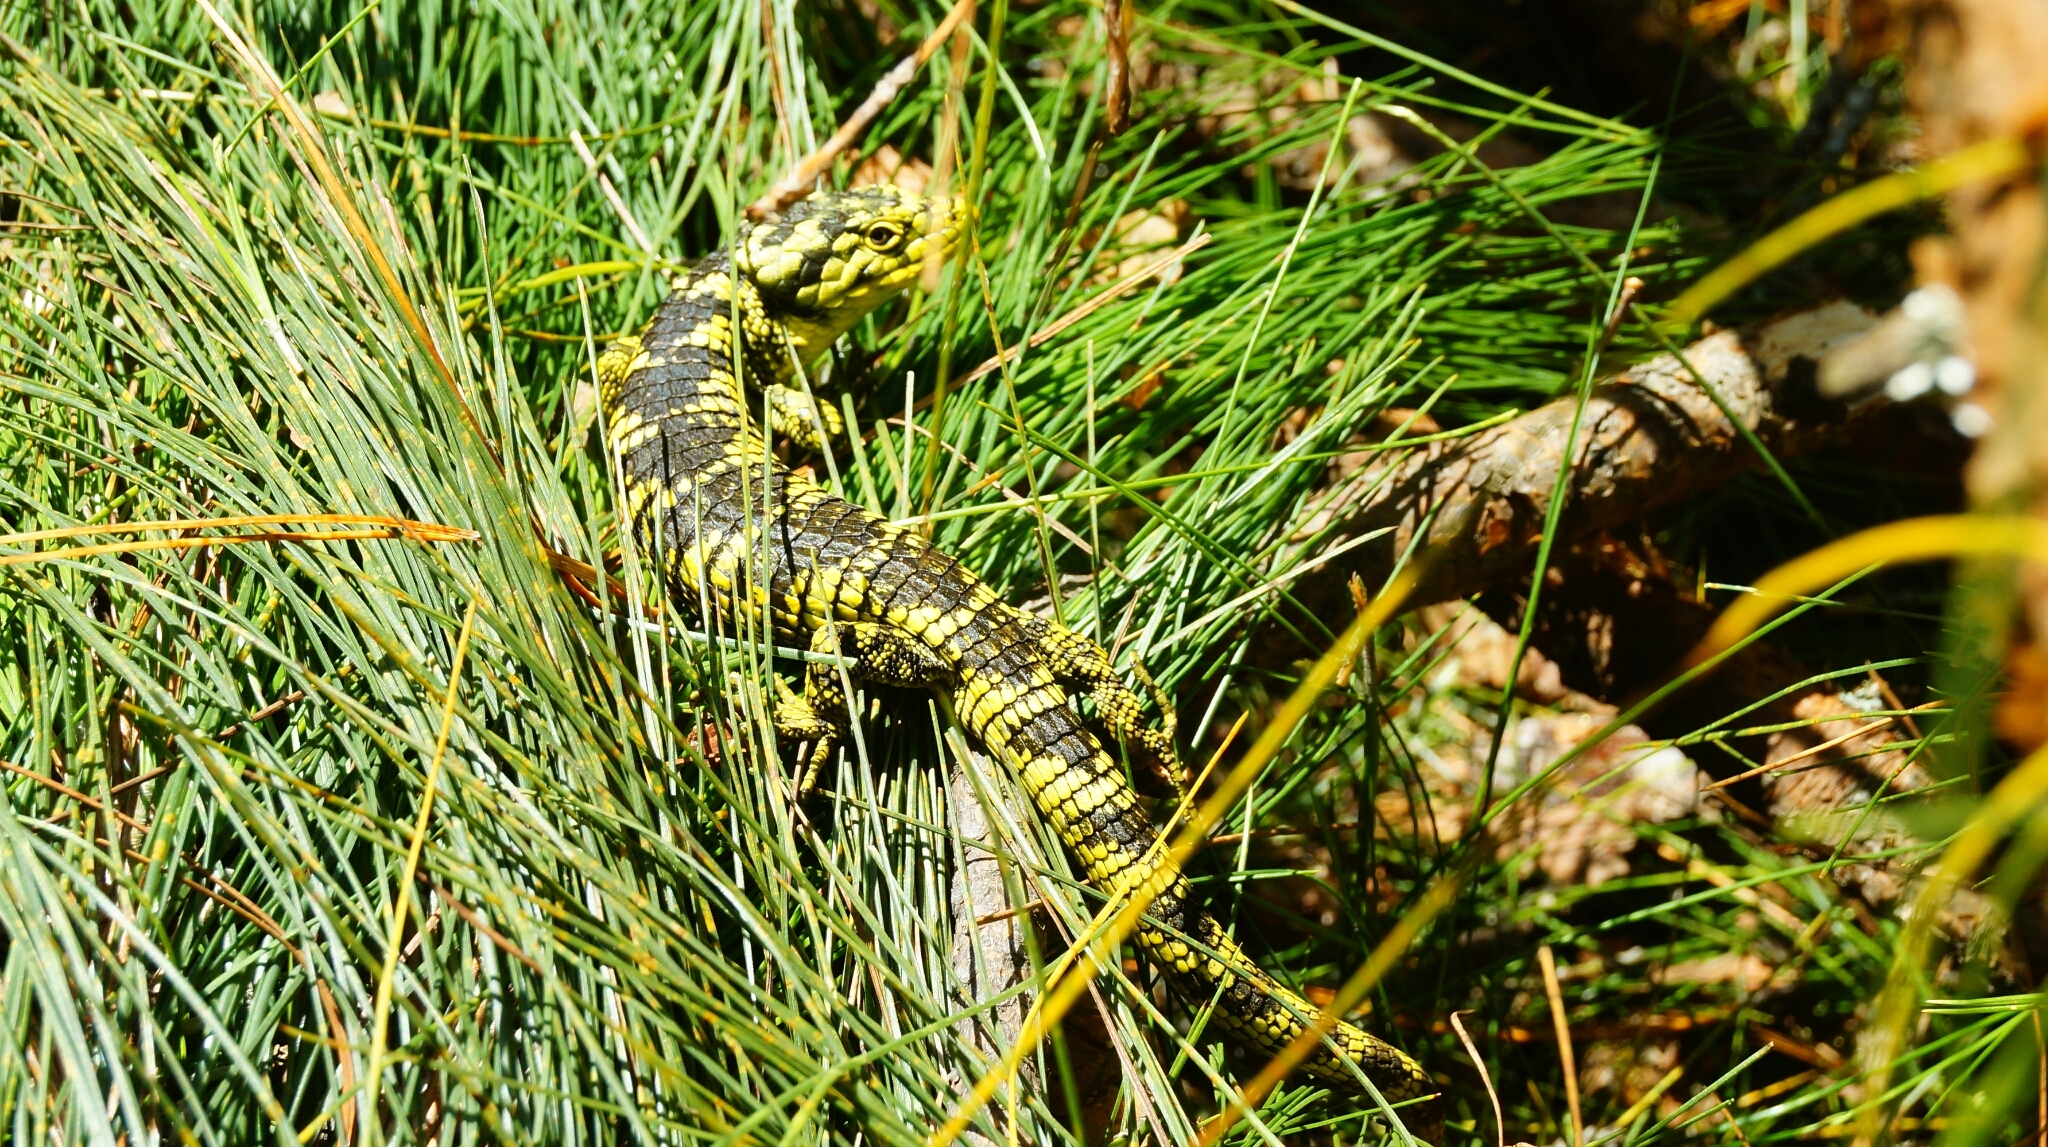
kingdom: Animalia
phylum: Chordata
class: Squamata
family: Anguidae
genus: Abronia
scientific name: Abronia taeniata
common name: Bromeliad arboreal alligator lizard
